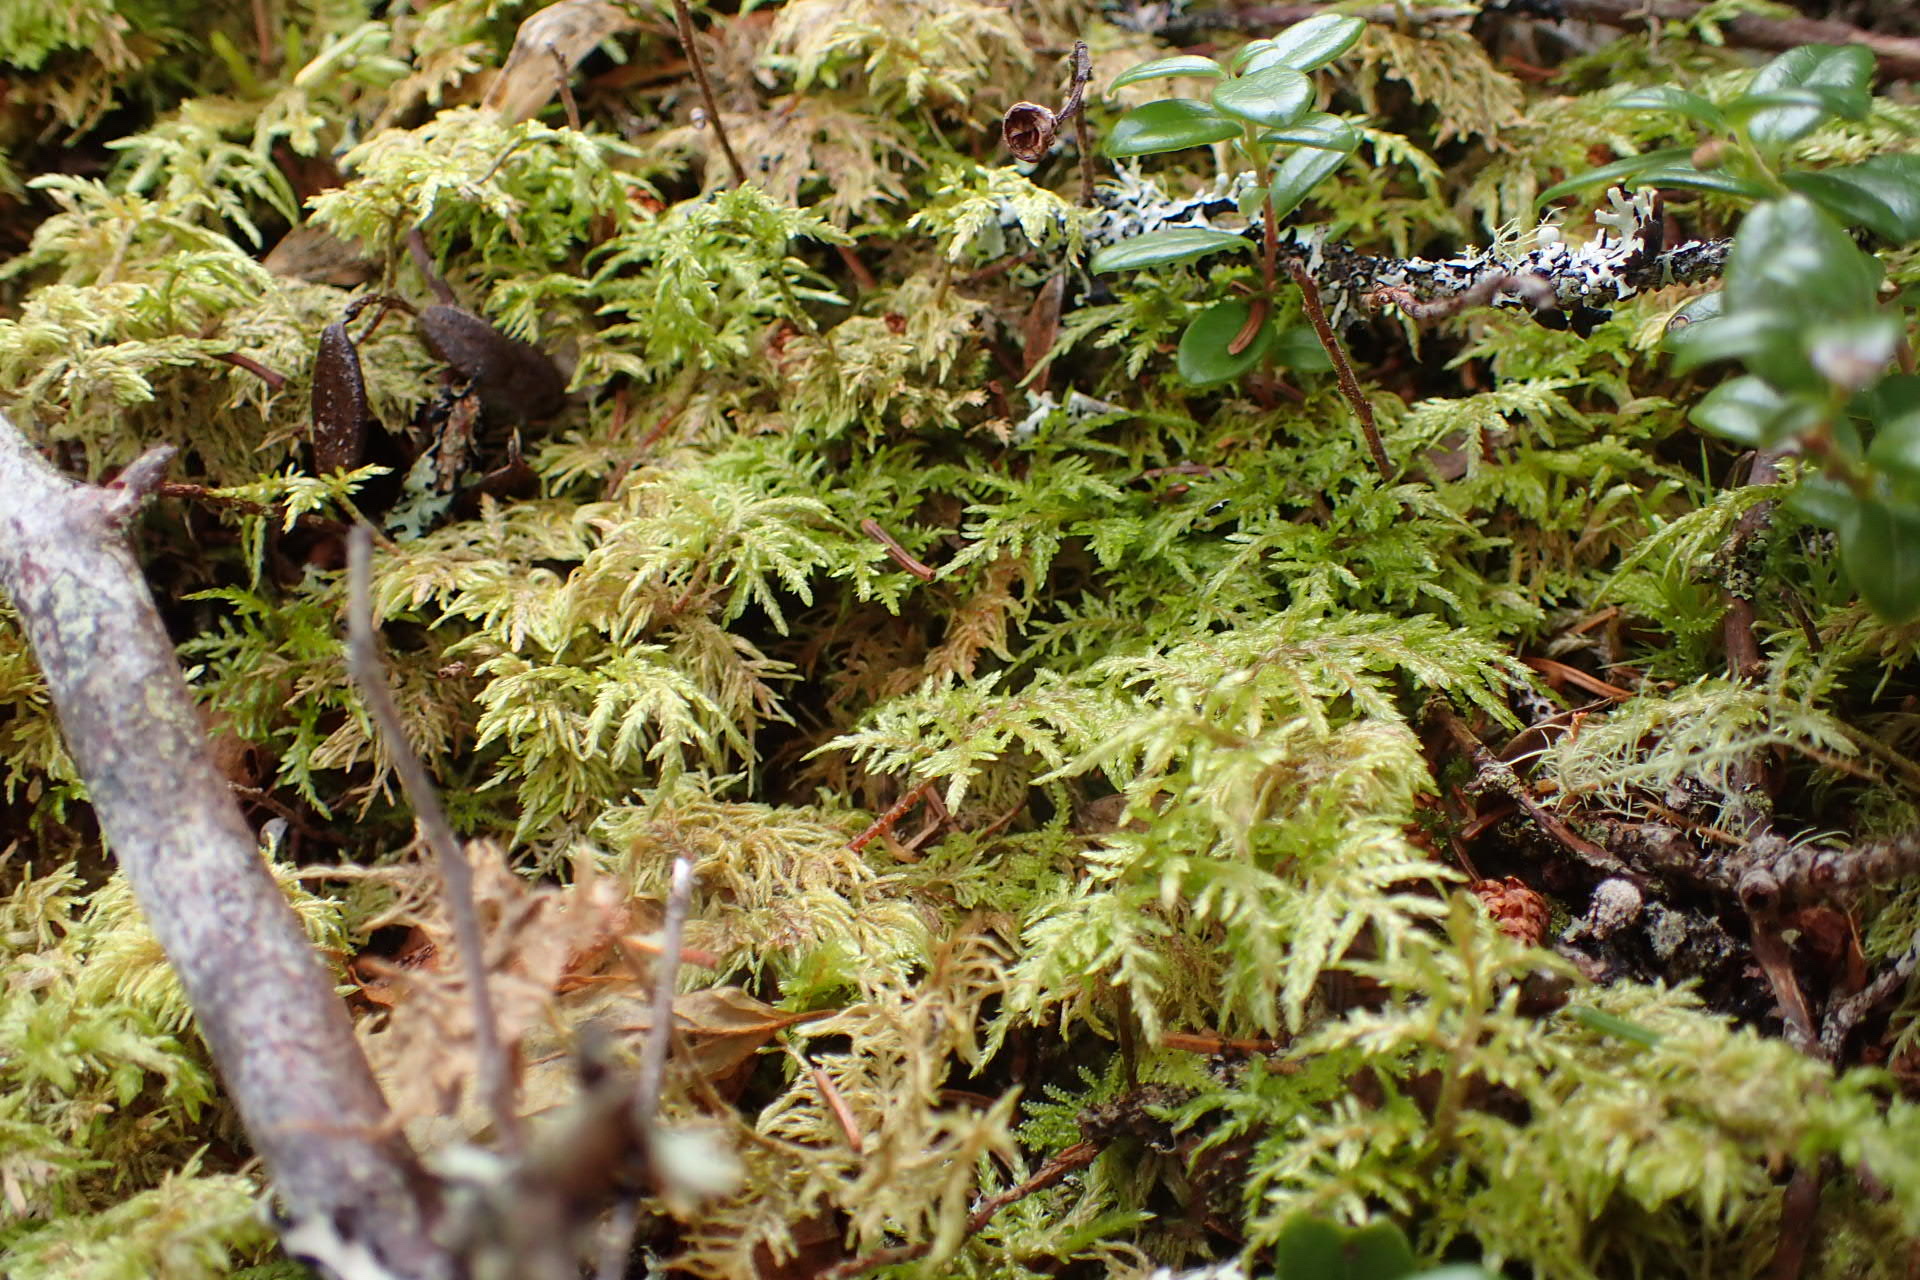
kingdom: Plantae
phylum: Bryophyta
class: Bryopsida
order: Hypnales
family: Hylocomiaceae
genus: Hylocomium
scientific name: Hylocomium splendens
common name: Stairstep moss
